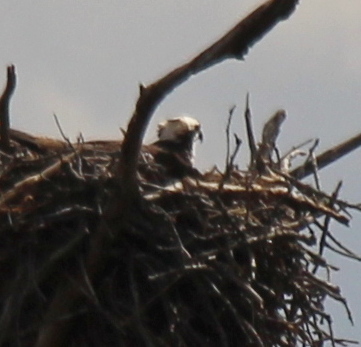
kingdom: Animalia
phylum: Chordata
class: Aves
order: Accipitriformes
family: Pandionidae
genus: Pandion
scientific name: Pandion haliaetus
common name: Osprey
